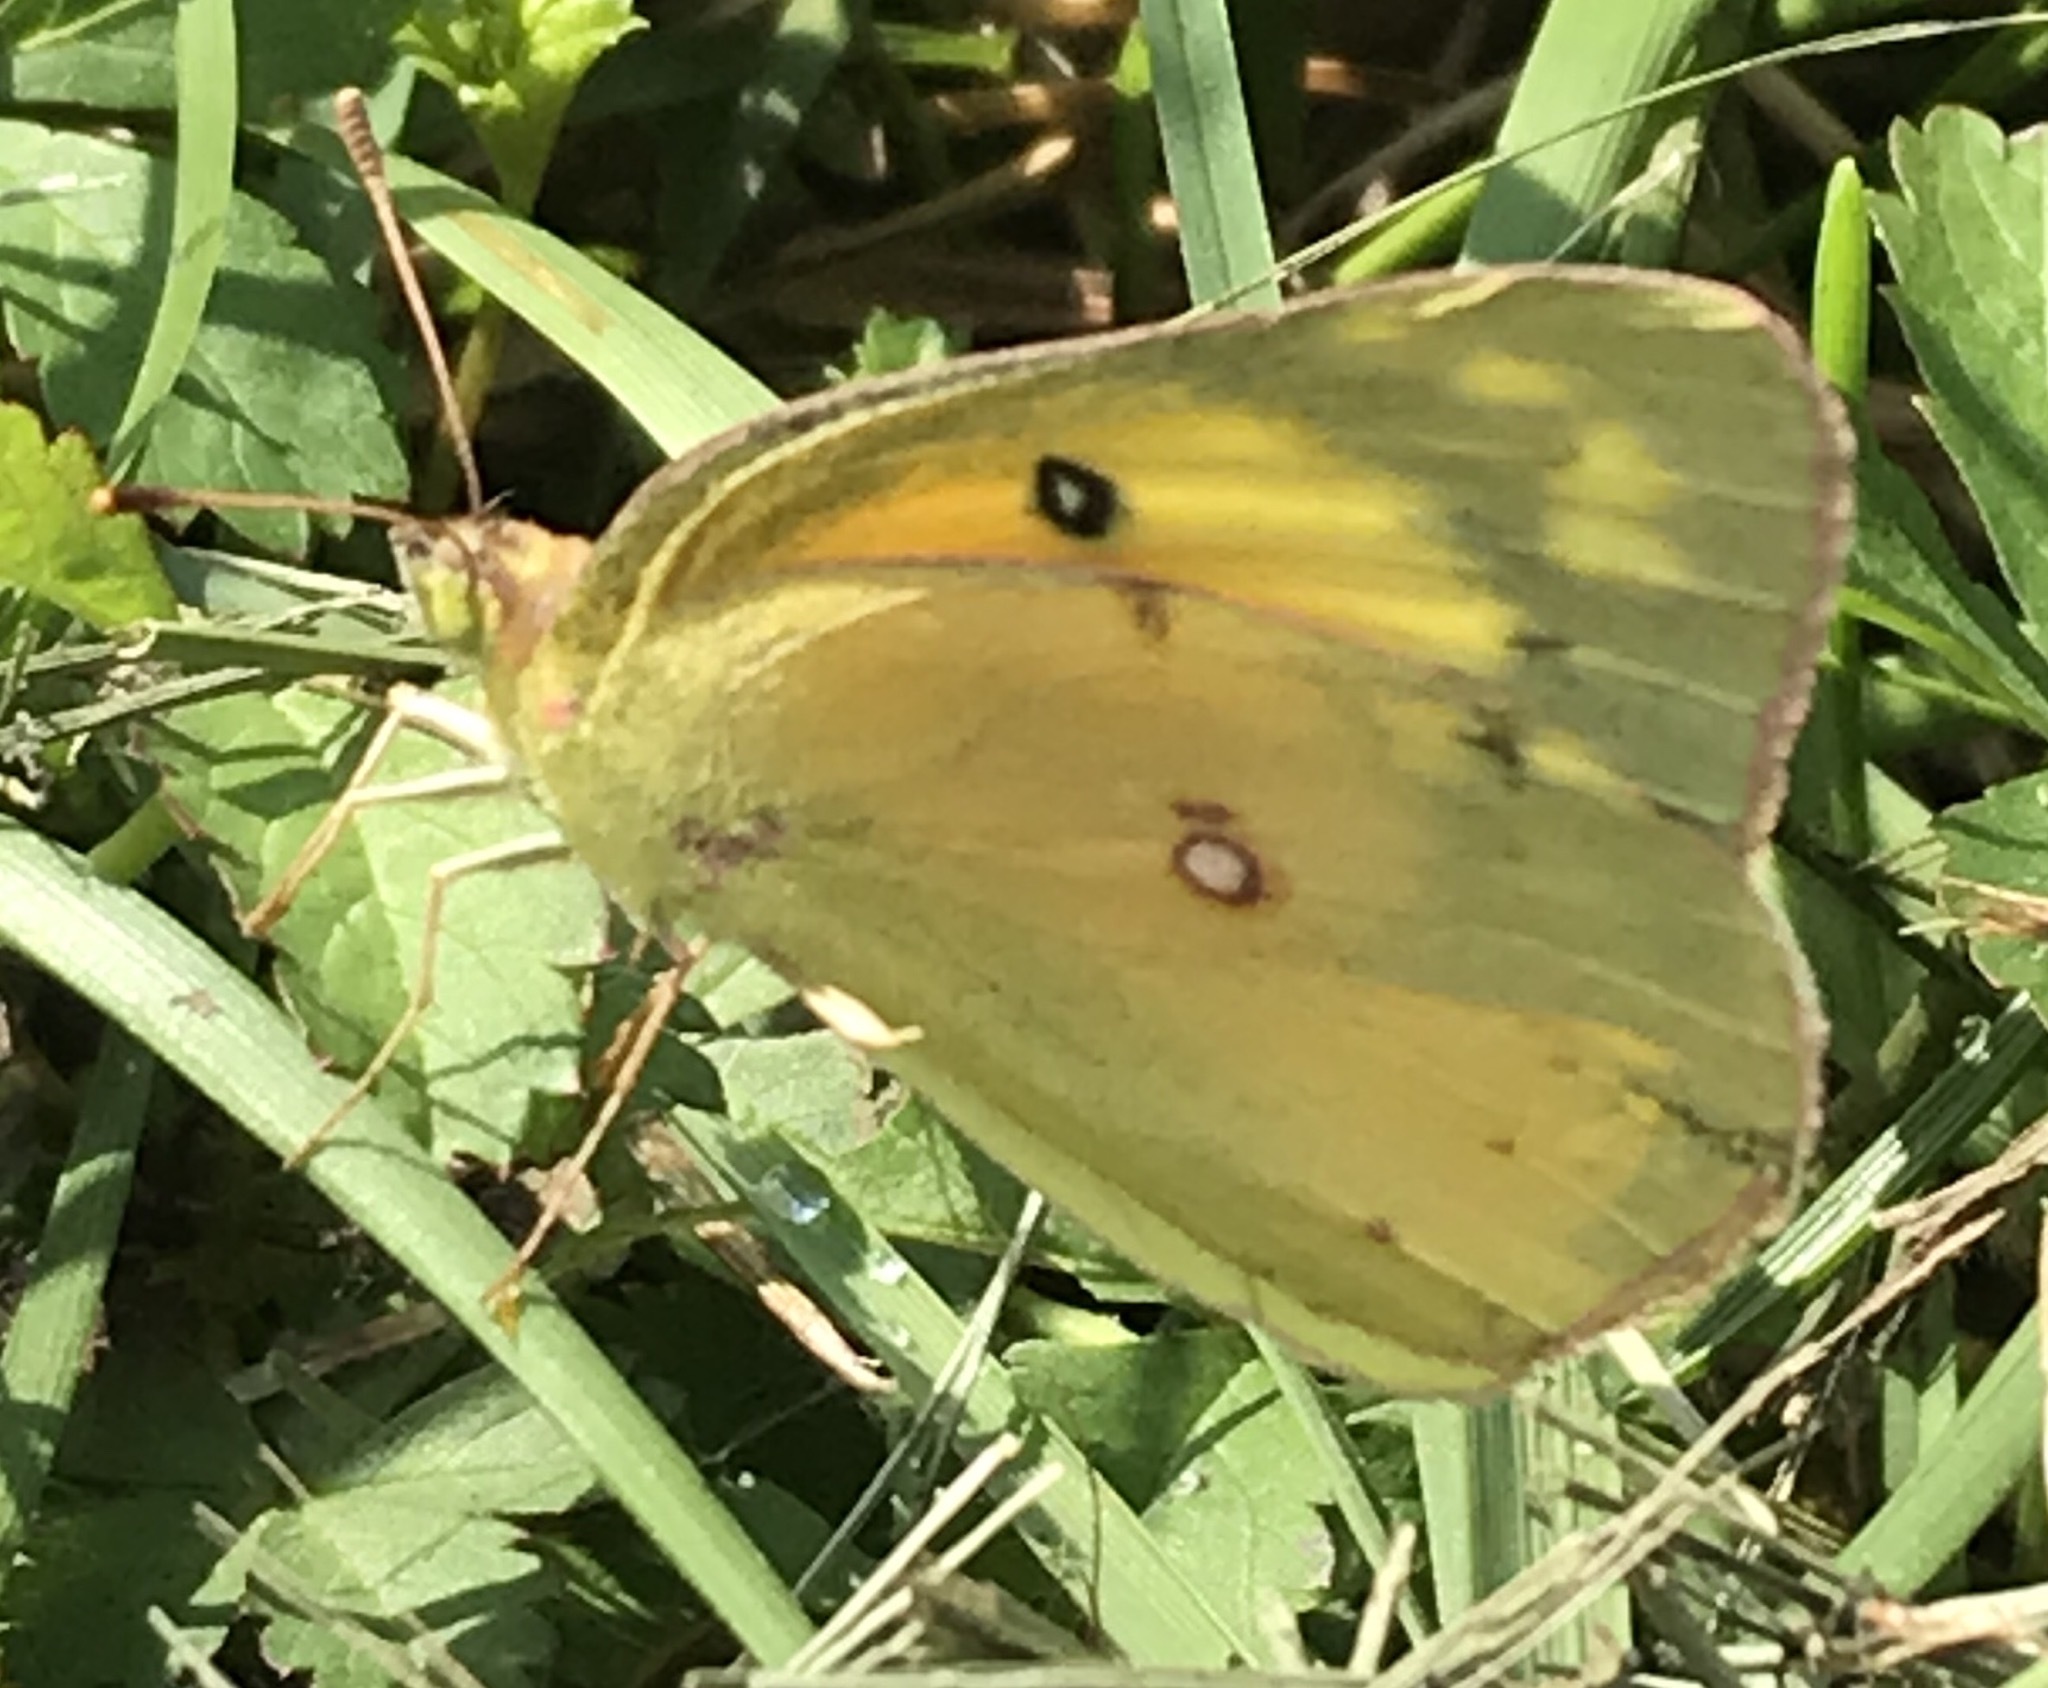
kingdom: Animalia
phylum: Arthropoda
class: Insecta
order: Lepidoptera
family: Pieridae
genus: Colias
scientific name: Colias eurytheme
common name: Alfalfa butterfly
